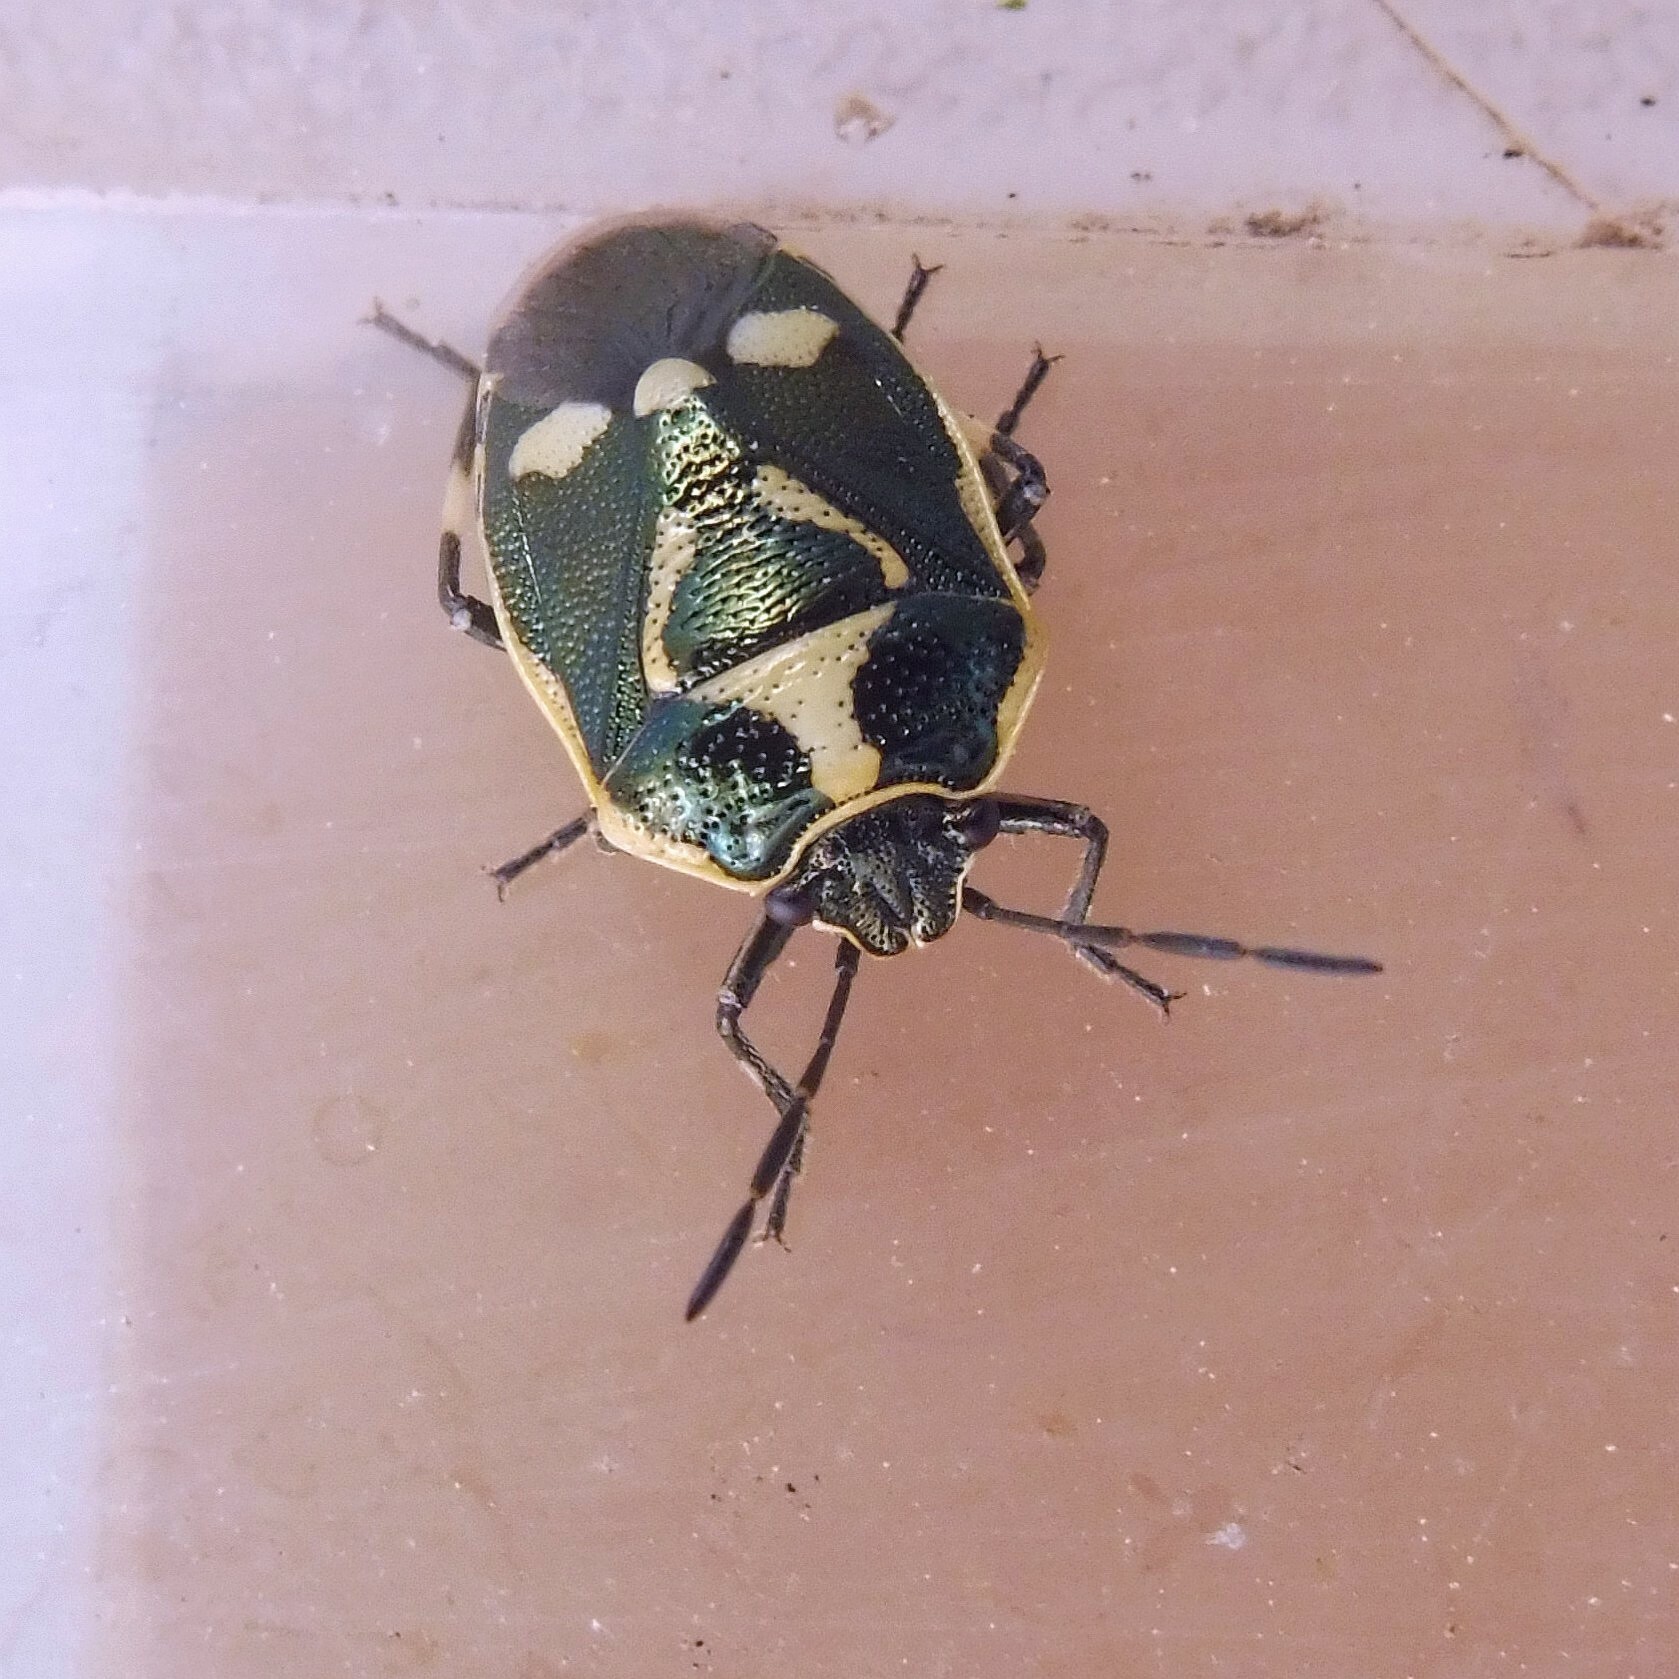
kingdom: Animalia
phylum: Arthropoda
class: Insecta
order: Hemiptera
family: Pentatomidae
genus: Eurydema
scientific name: Eurydema oleracea
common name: Cabbage bug
